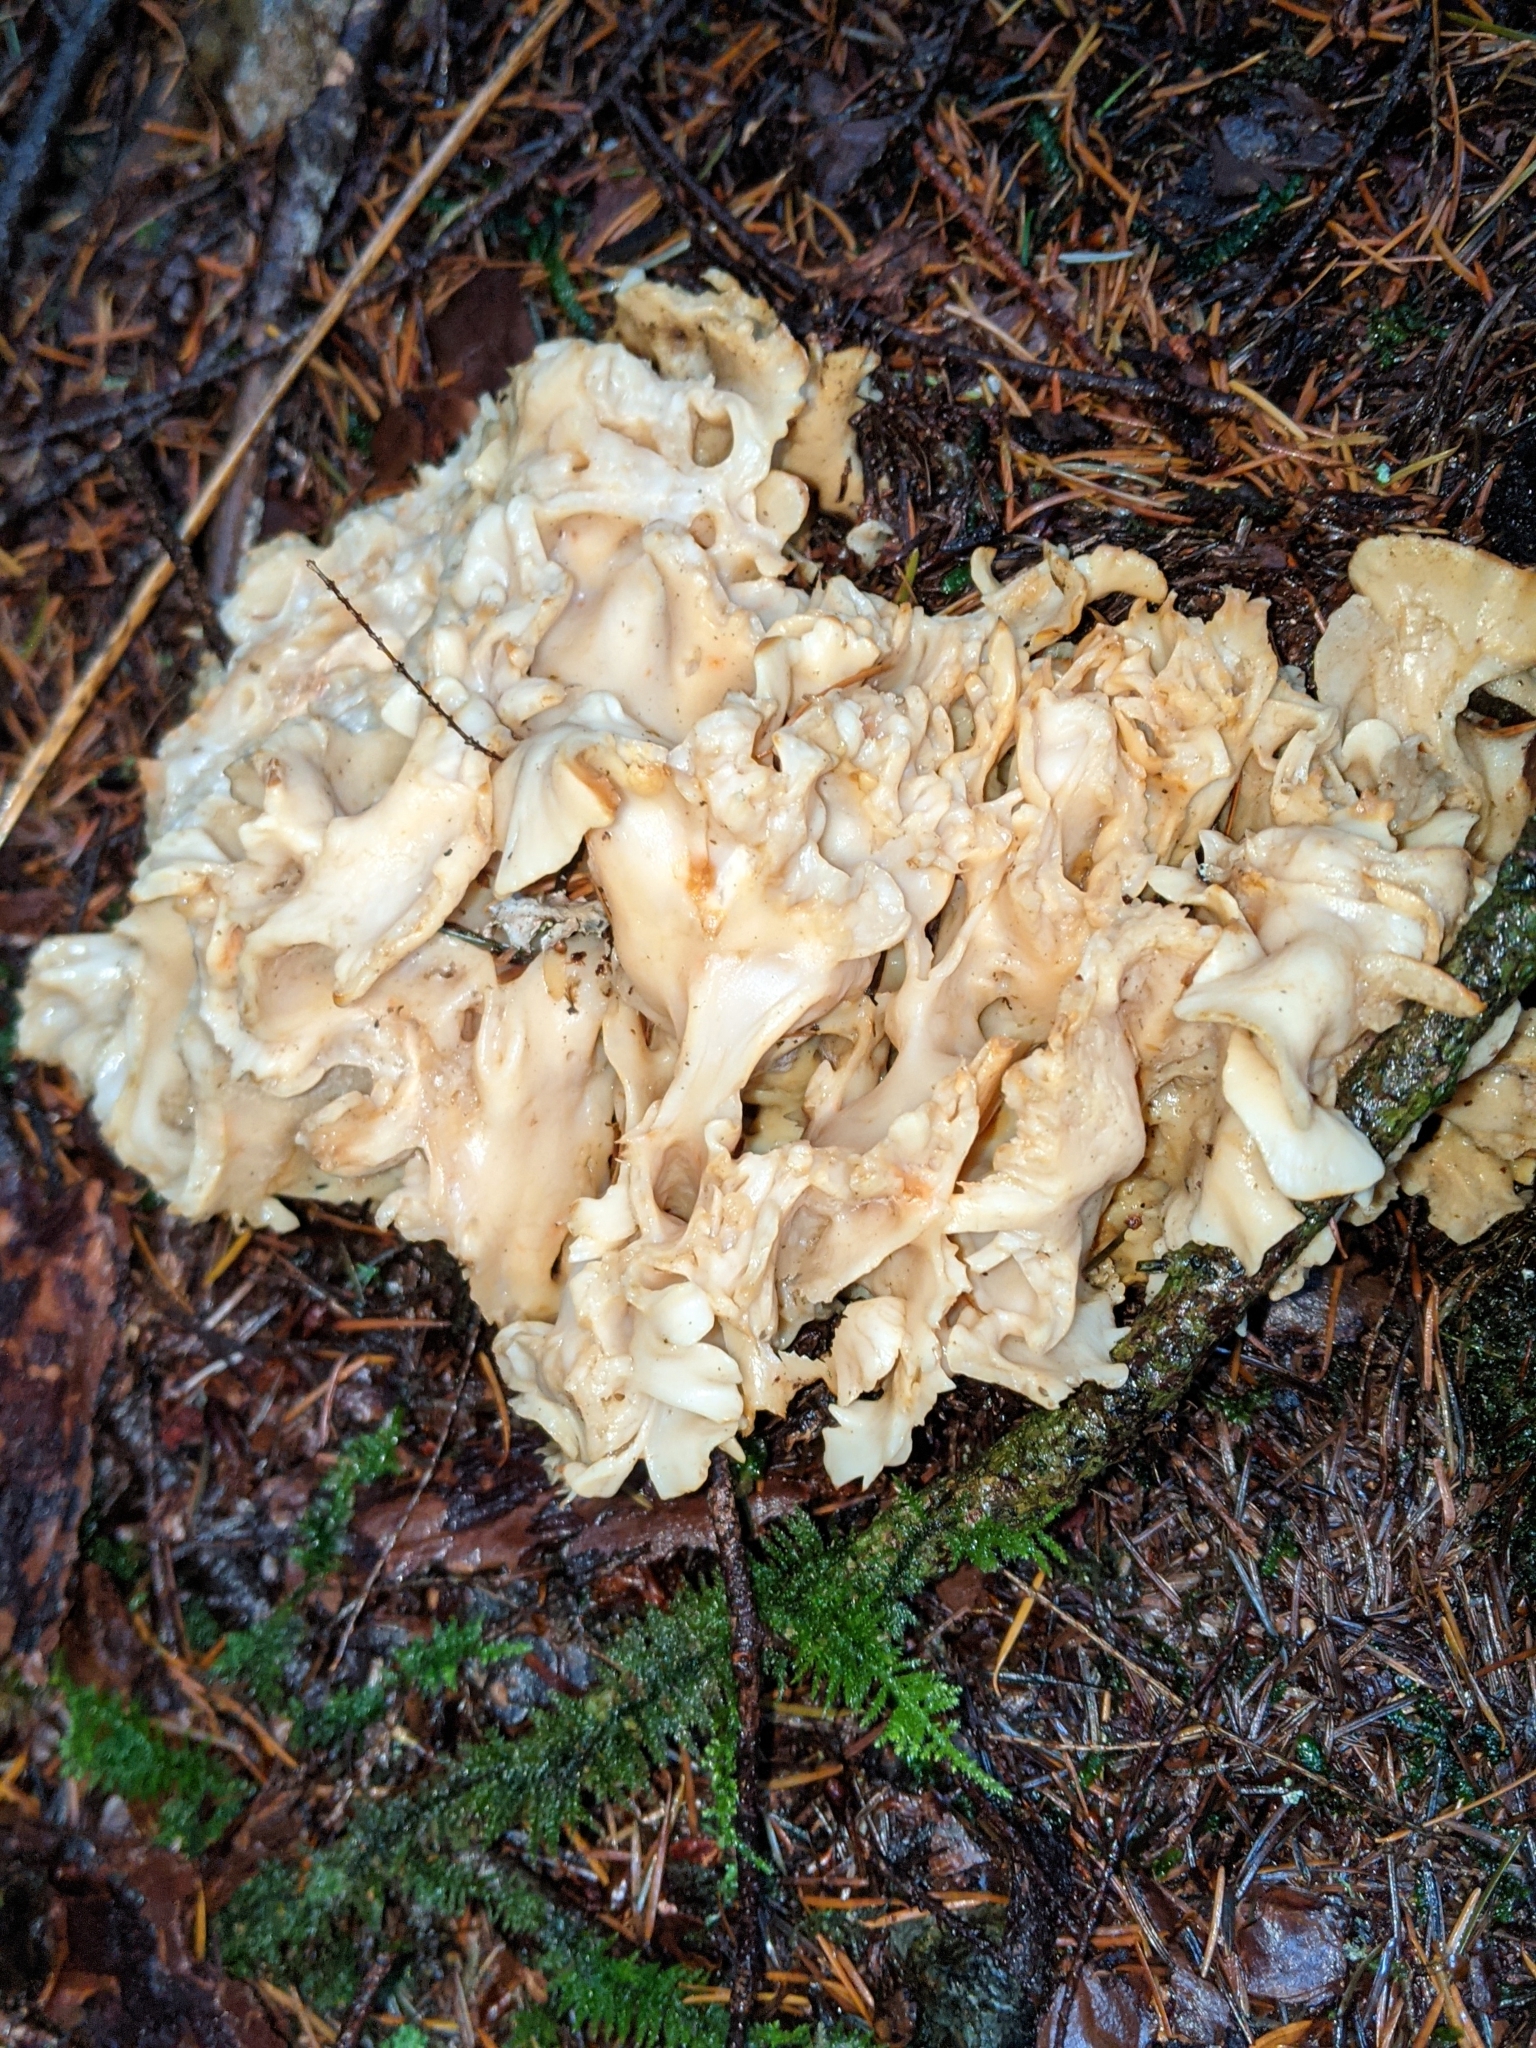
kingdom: Fungi
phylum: Basidiomycota
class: Agaricomycetes
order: Polyporales
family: Sparassidaceae
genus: Sparassis
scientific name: Sparassis radicata
